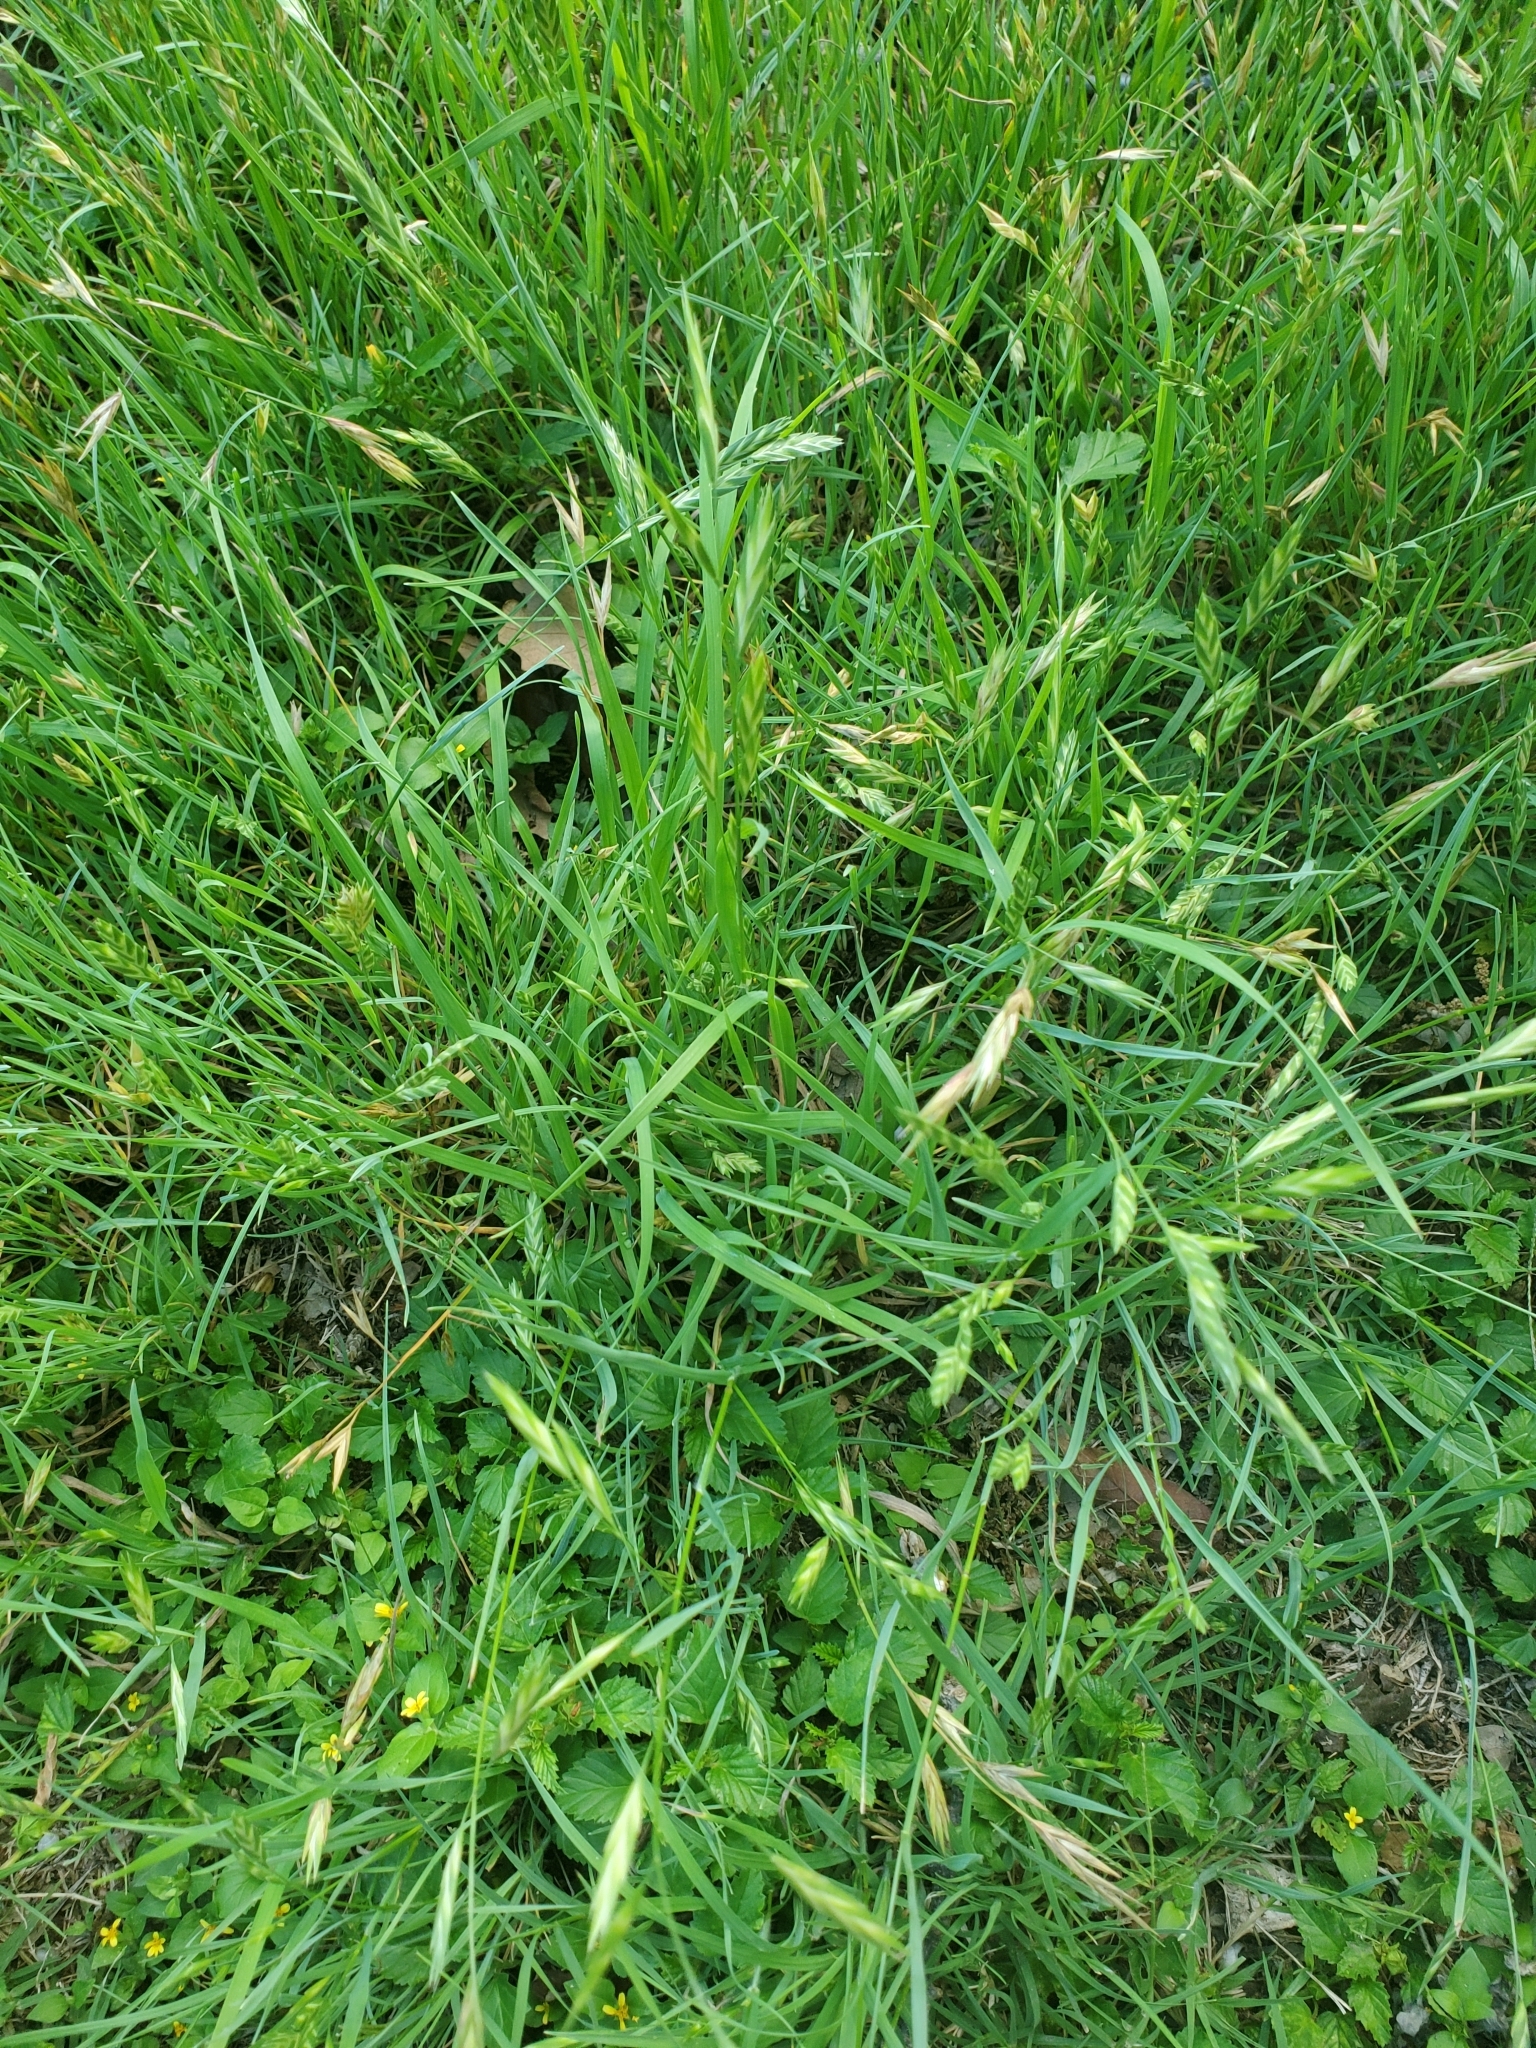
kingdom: Plantae
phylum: Tracheophyta
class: Liliopsida
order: Poales
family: Poaceae
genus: Bromus
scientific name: Bromus catharticus
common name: Rescuegrass
